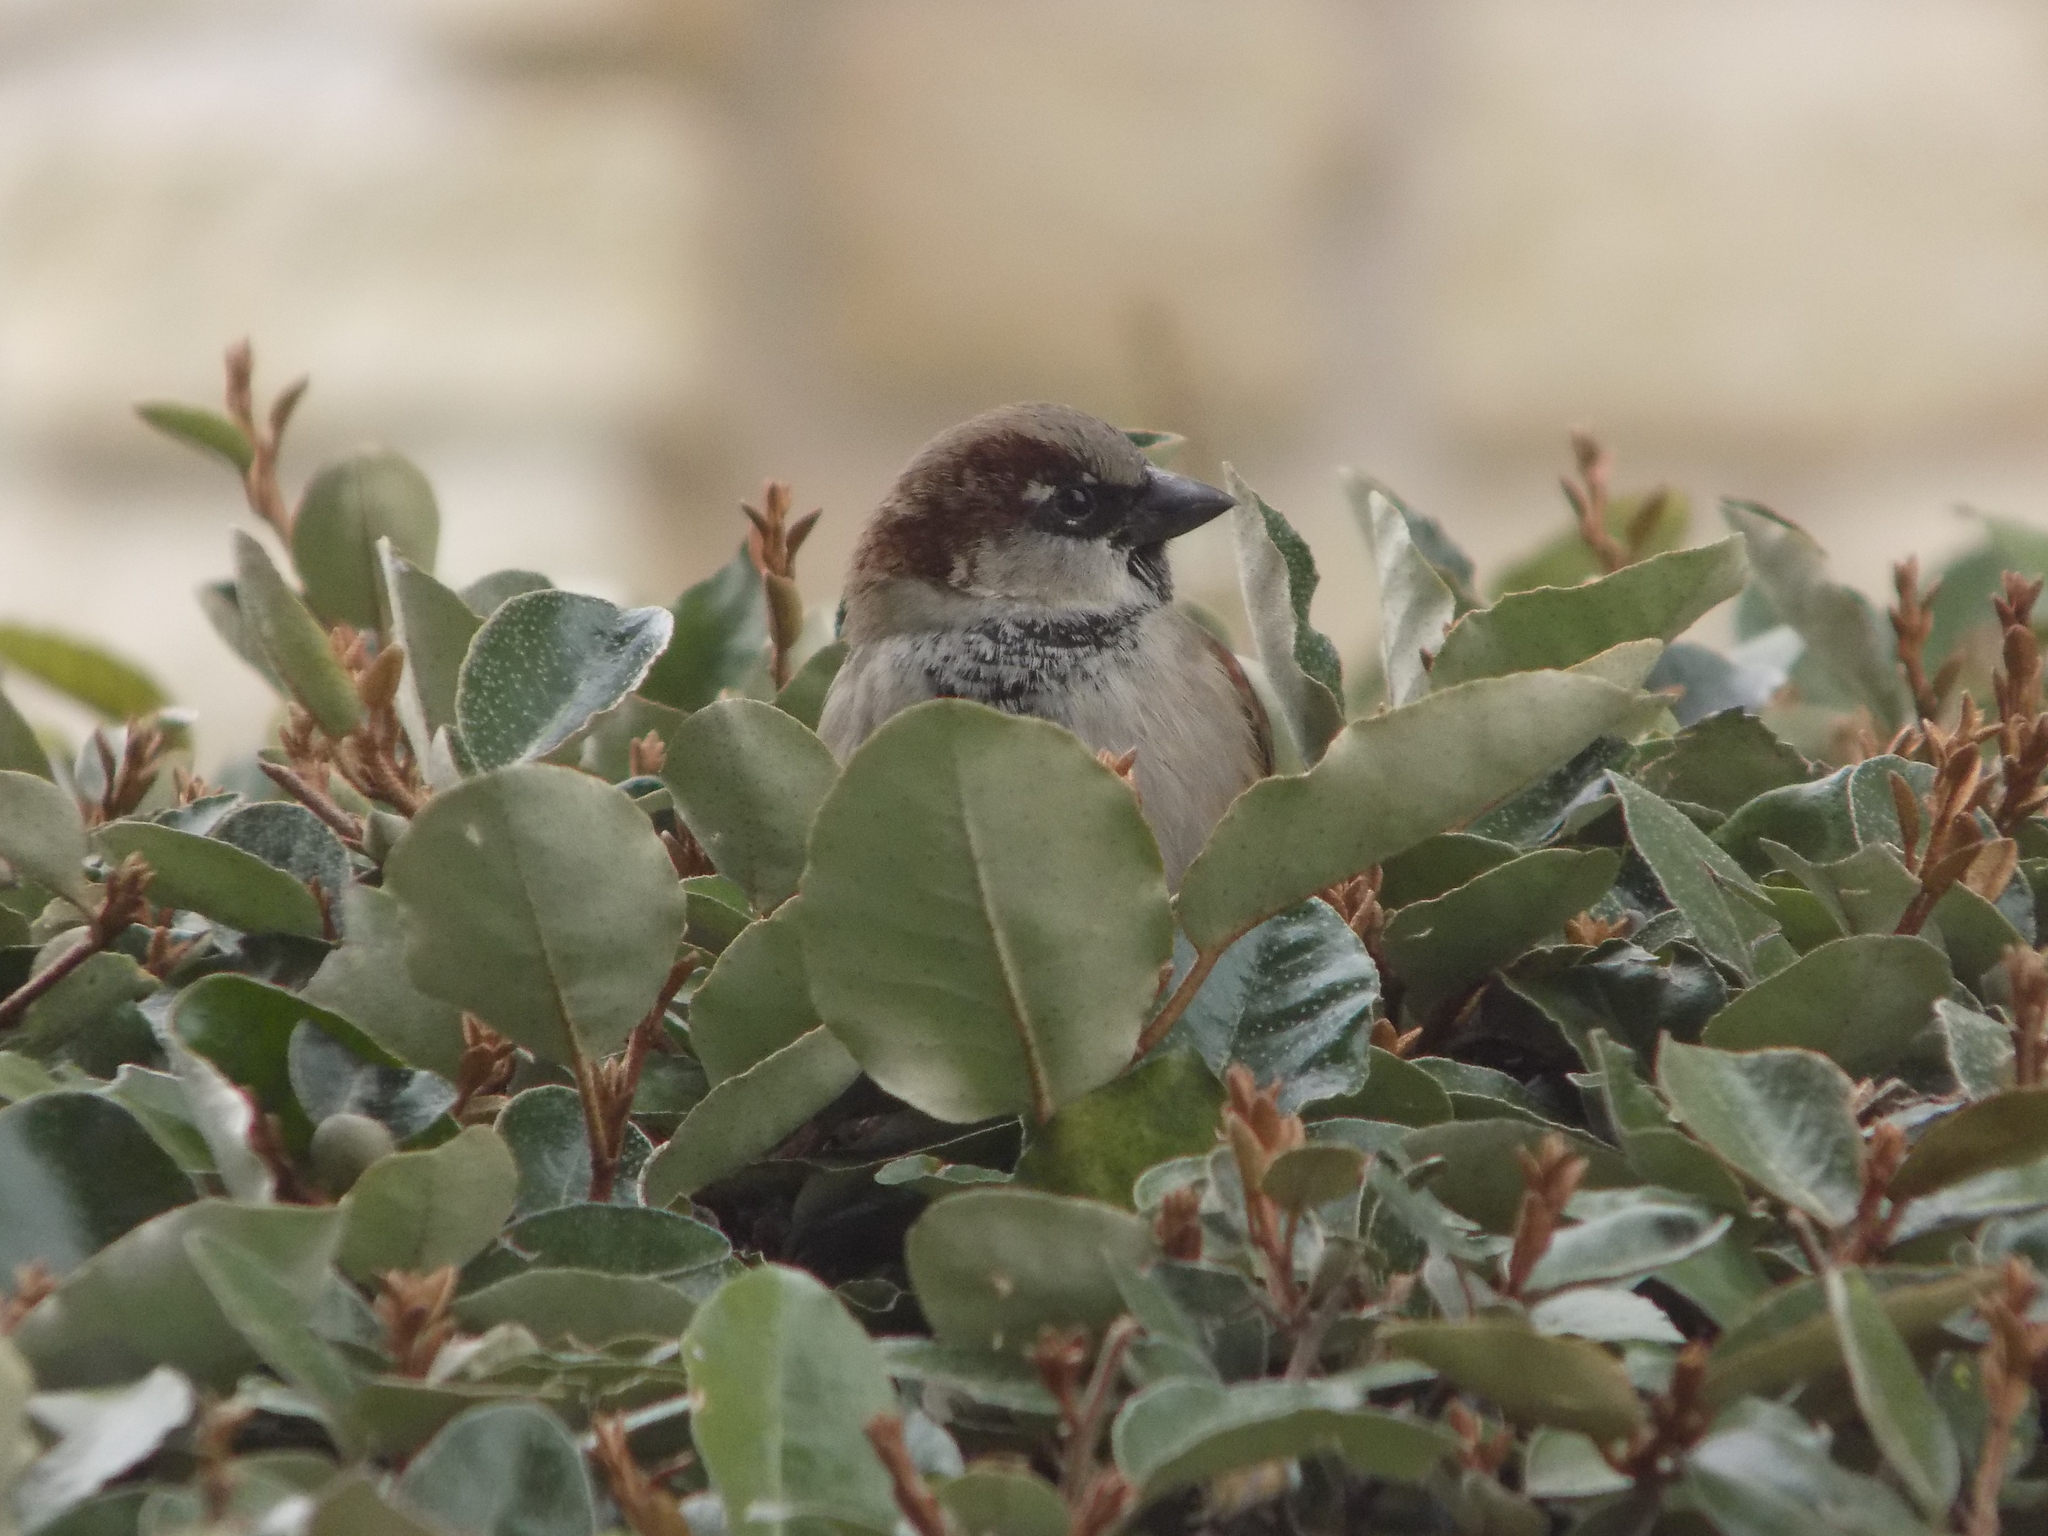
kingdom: Animalia
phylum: Chordata
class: Aves
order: Passeriformes
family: Passeridae
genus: Passer
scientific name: Passer domesticus
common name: House sparrow
